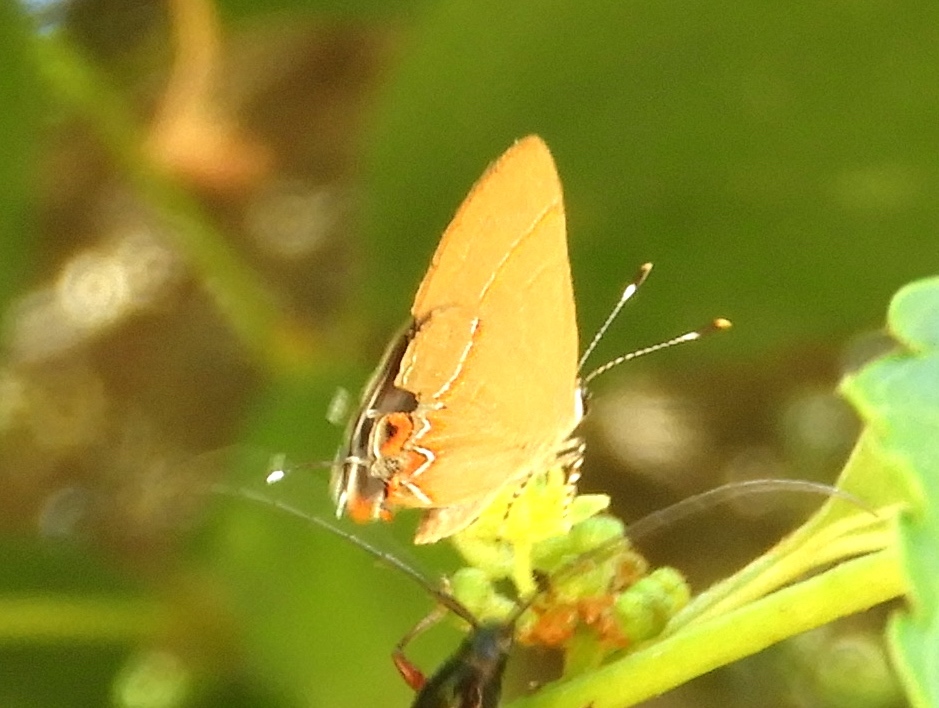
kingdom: Animalia
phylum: Arthropoda
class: Insecta
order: Lepidoptera
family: Lycaenidae
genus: Calycopis
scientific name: Calycopis
